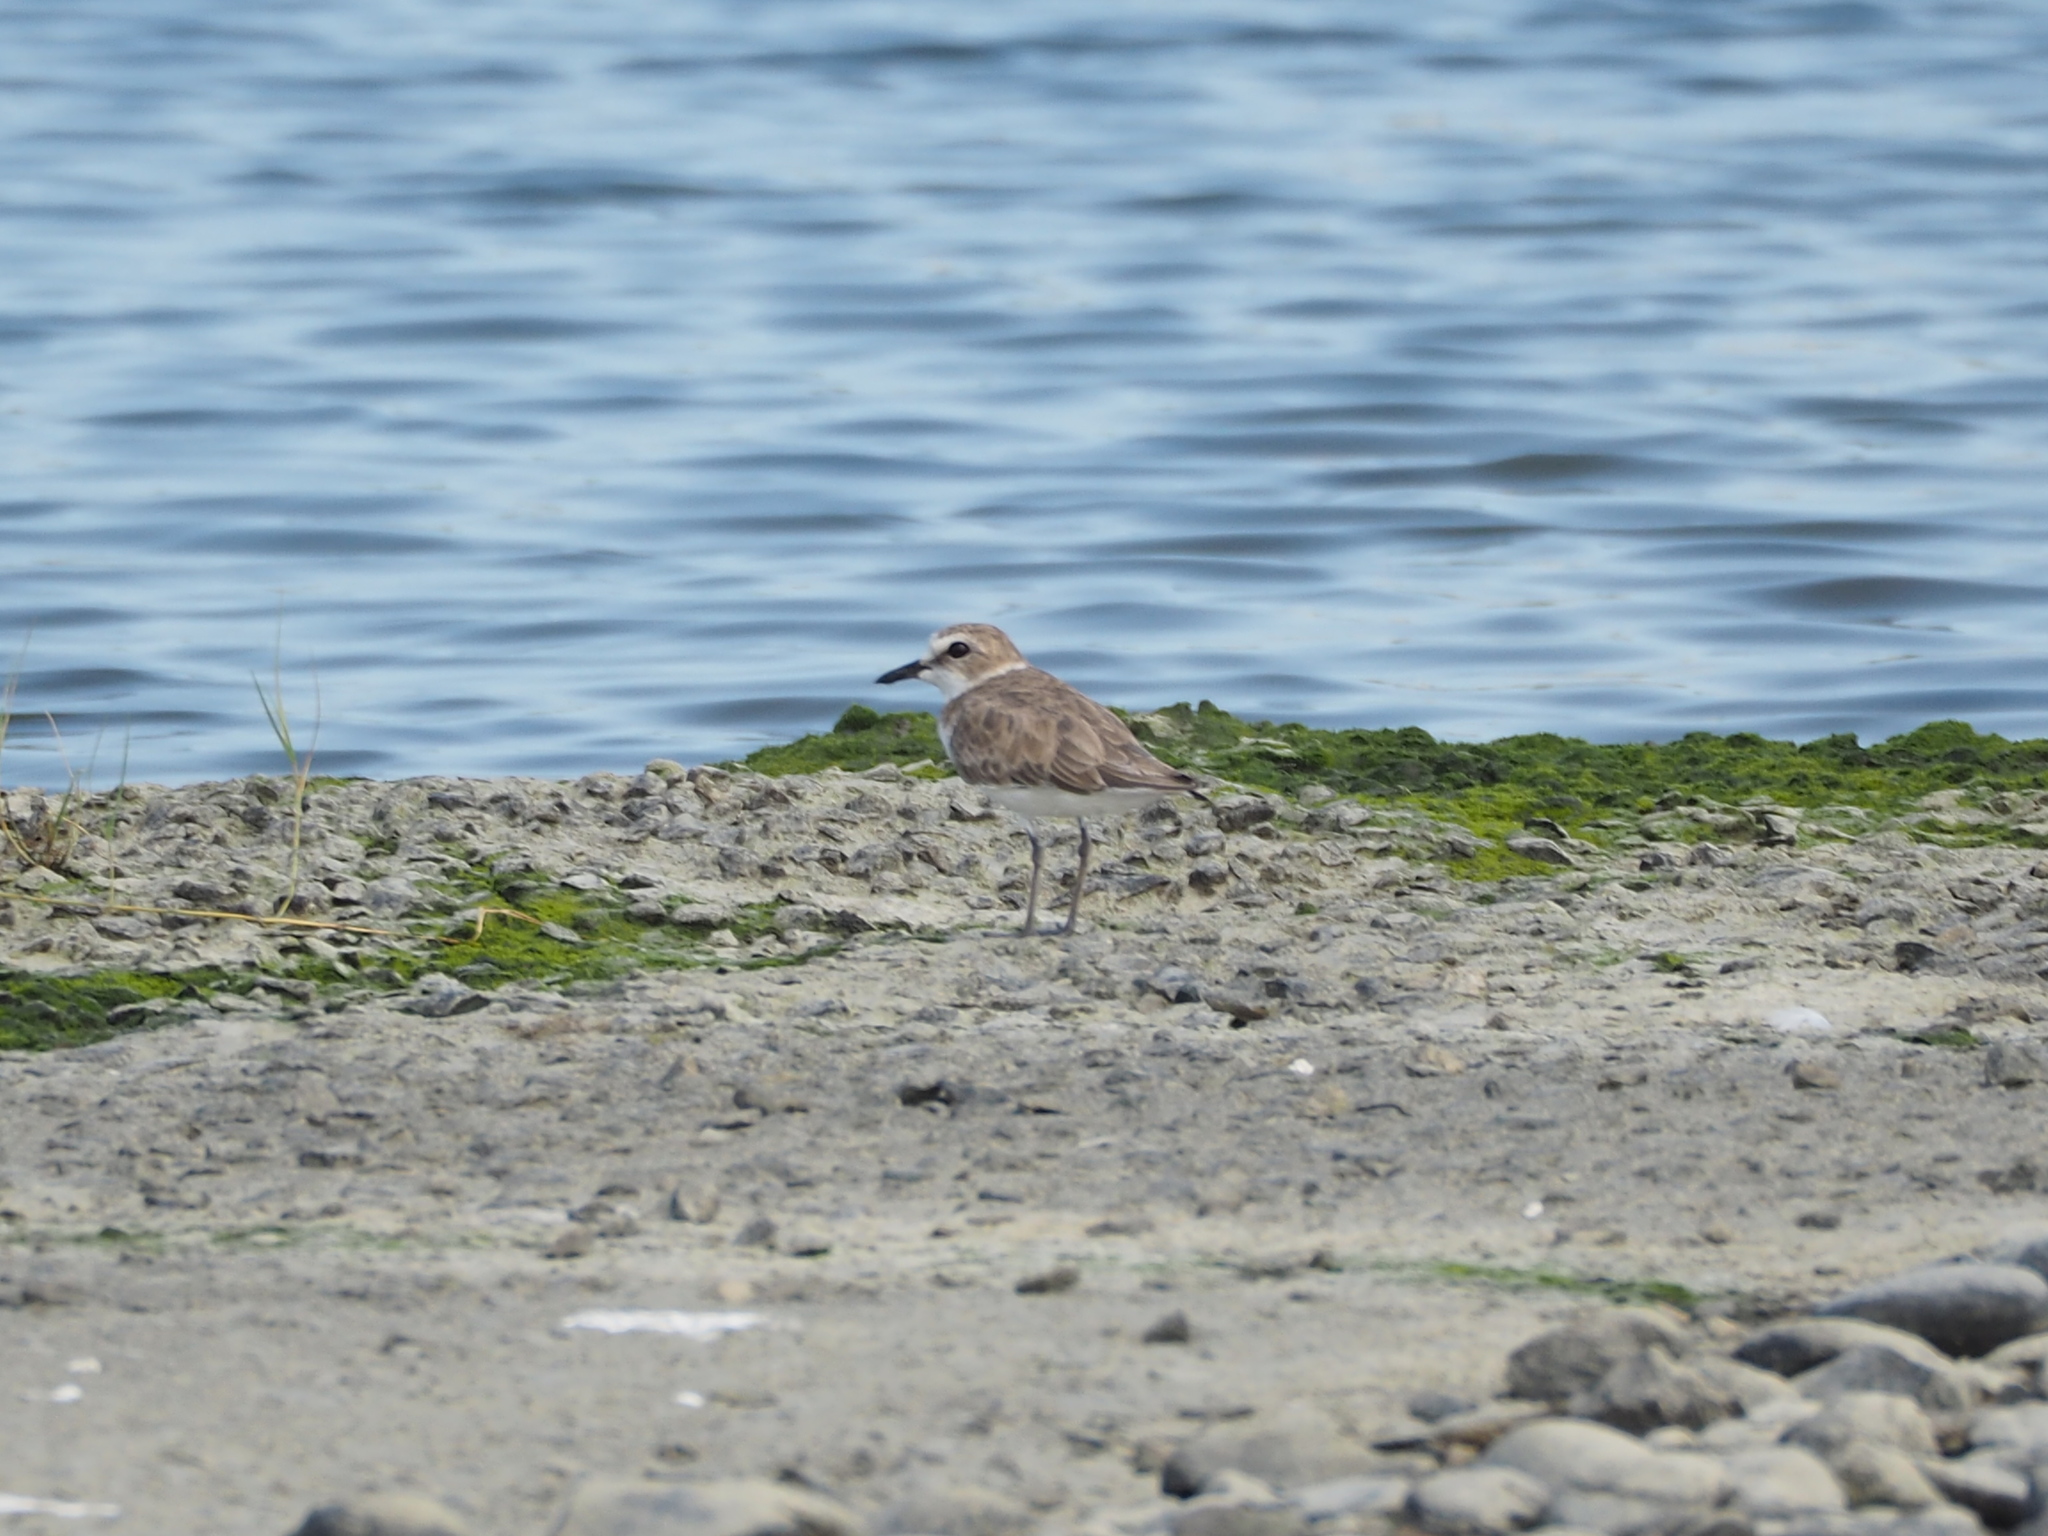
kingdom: Animalia
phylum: Chordata
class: Aves
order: Charadriiformes
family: Charadriidae
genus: Charadrius
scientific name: Charadrius alexandrinus
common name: Kentish plover
